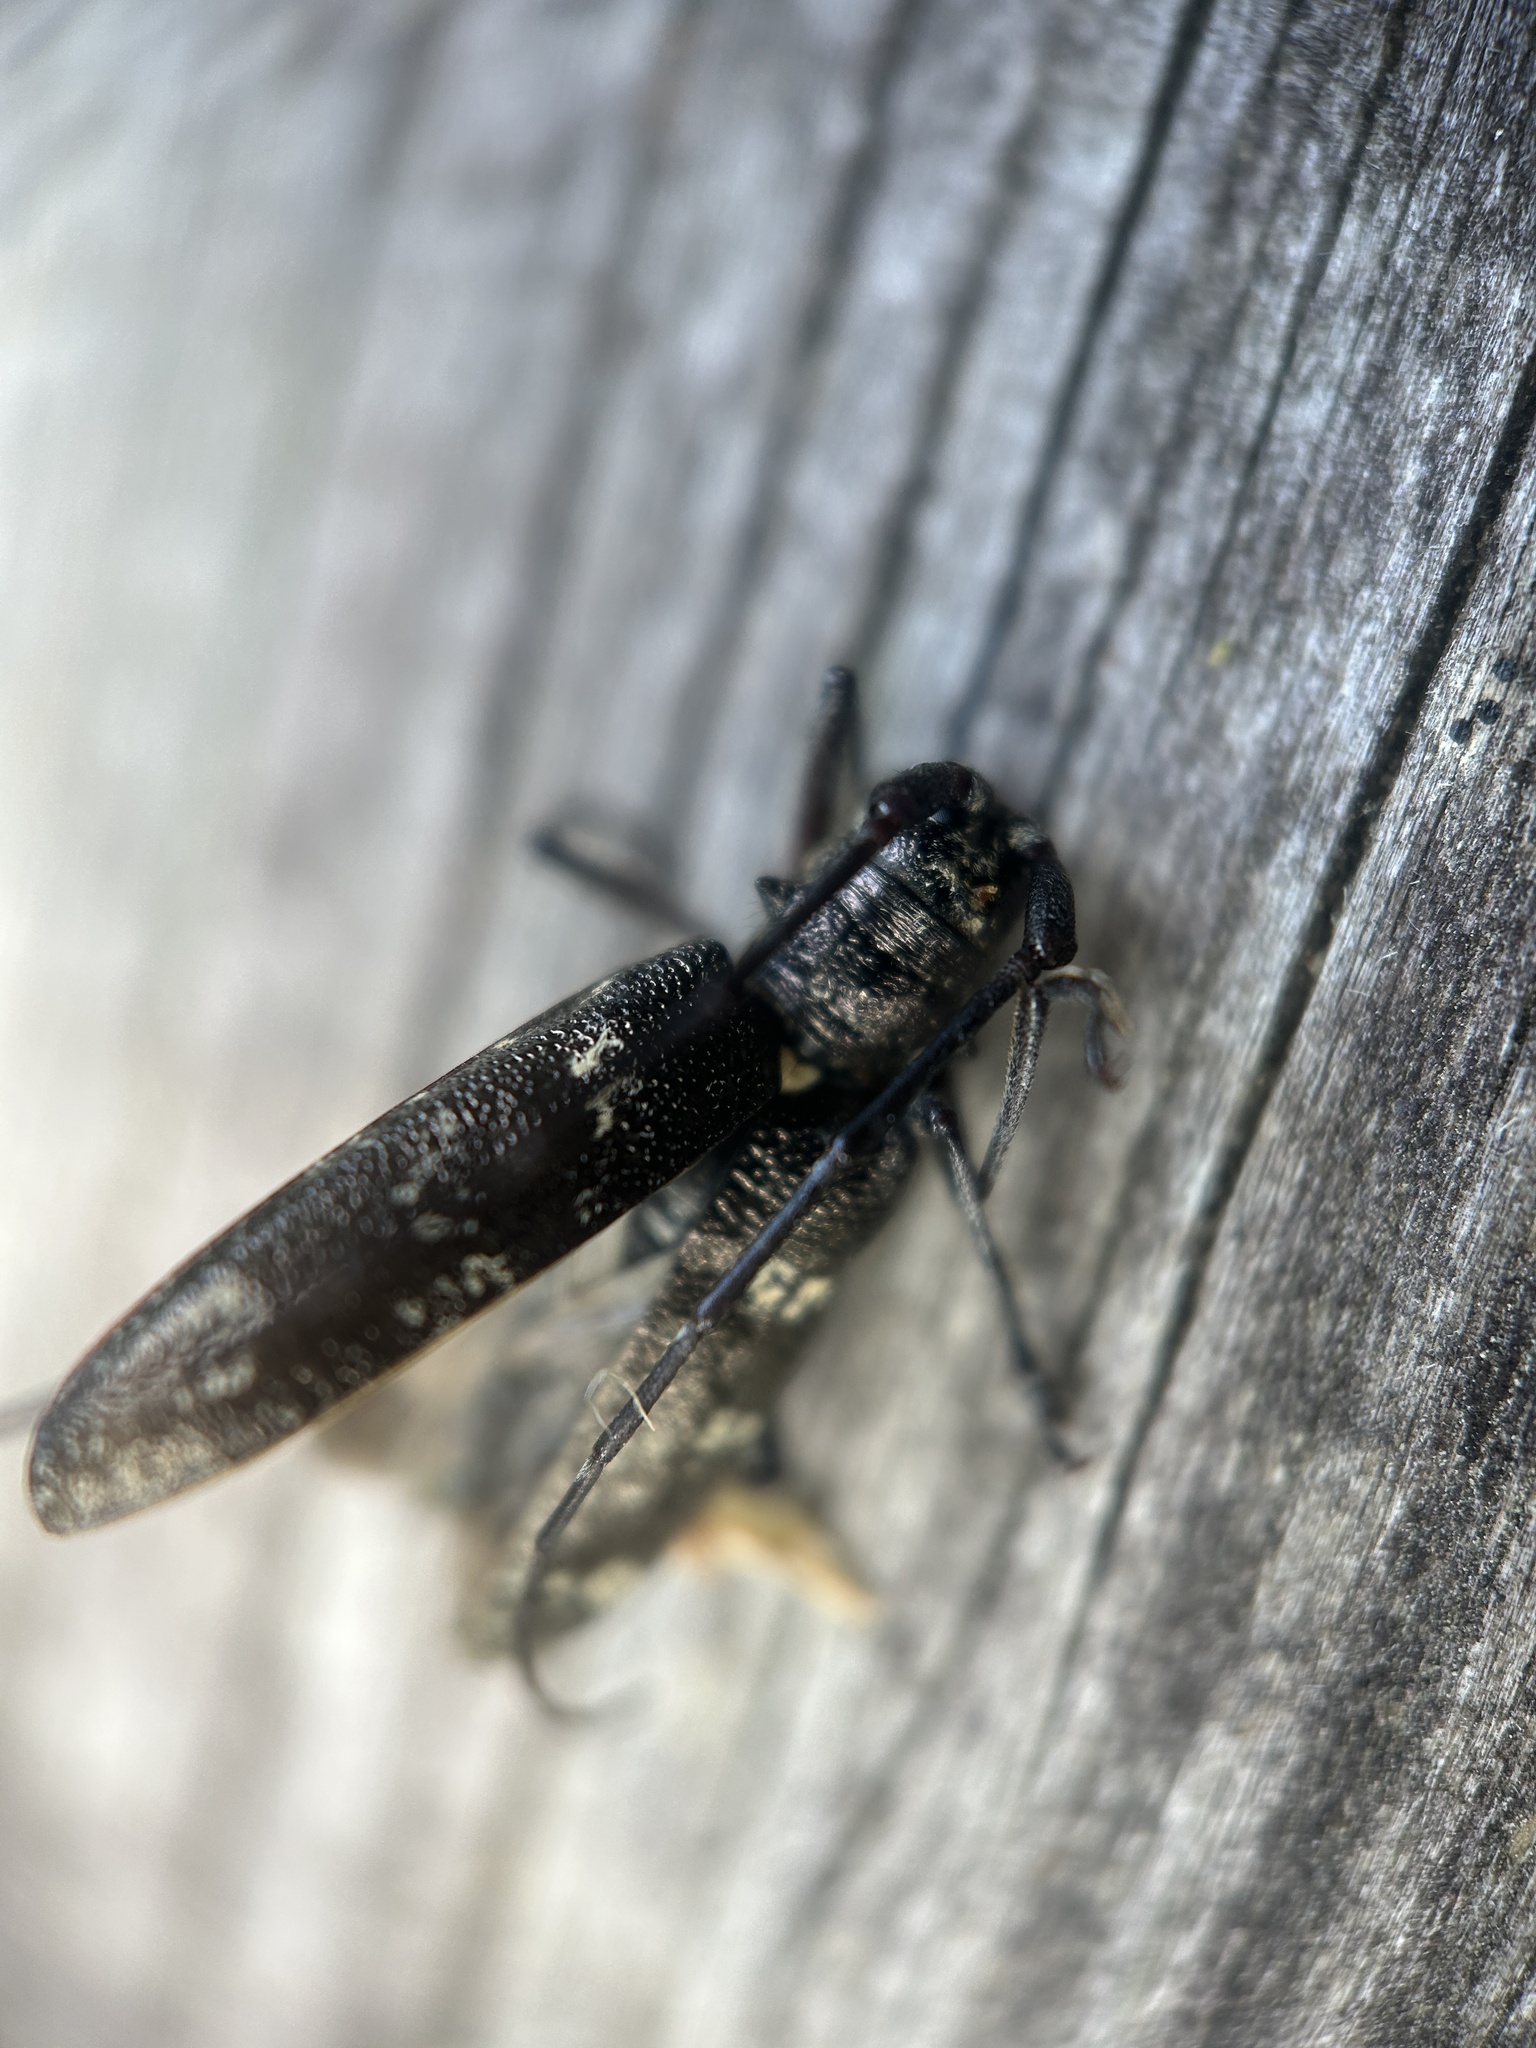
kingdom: Animalia
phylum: Arthropoda
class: Insecta
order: Coleoptera
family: Cerambycidae
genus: Monochamus
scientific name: Monochamus scutellatus
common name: White-spotted sawyer beetle
